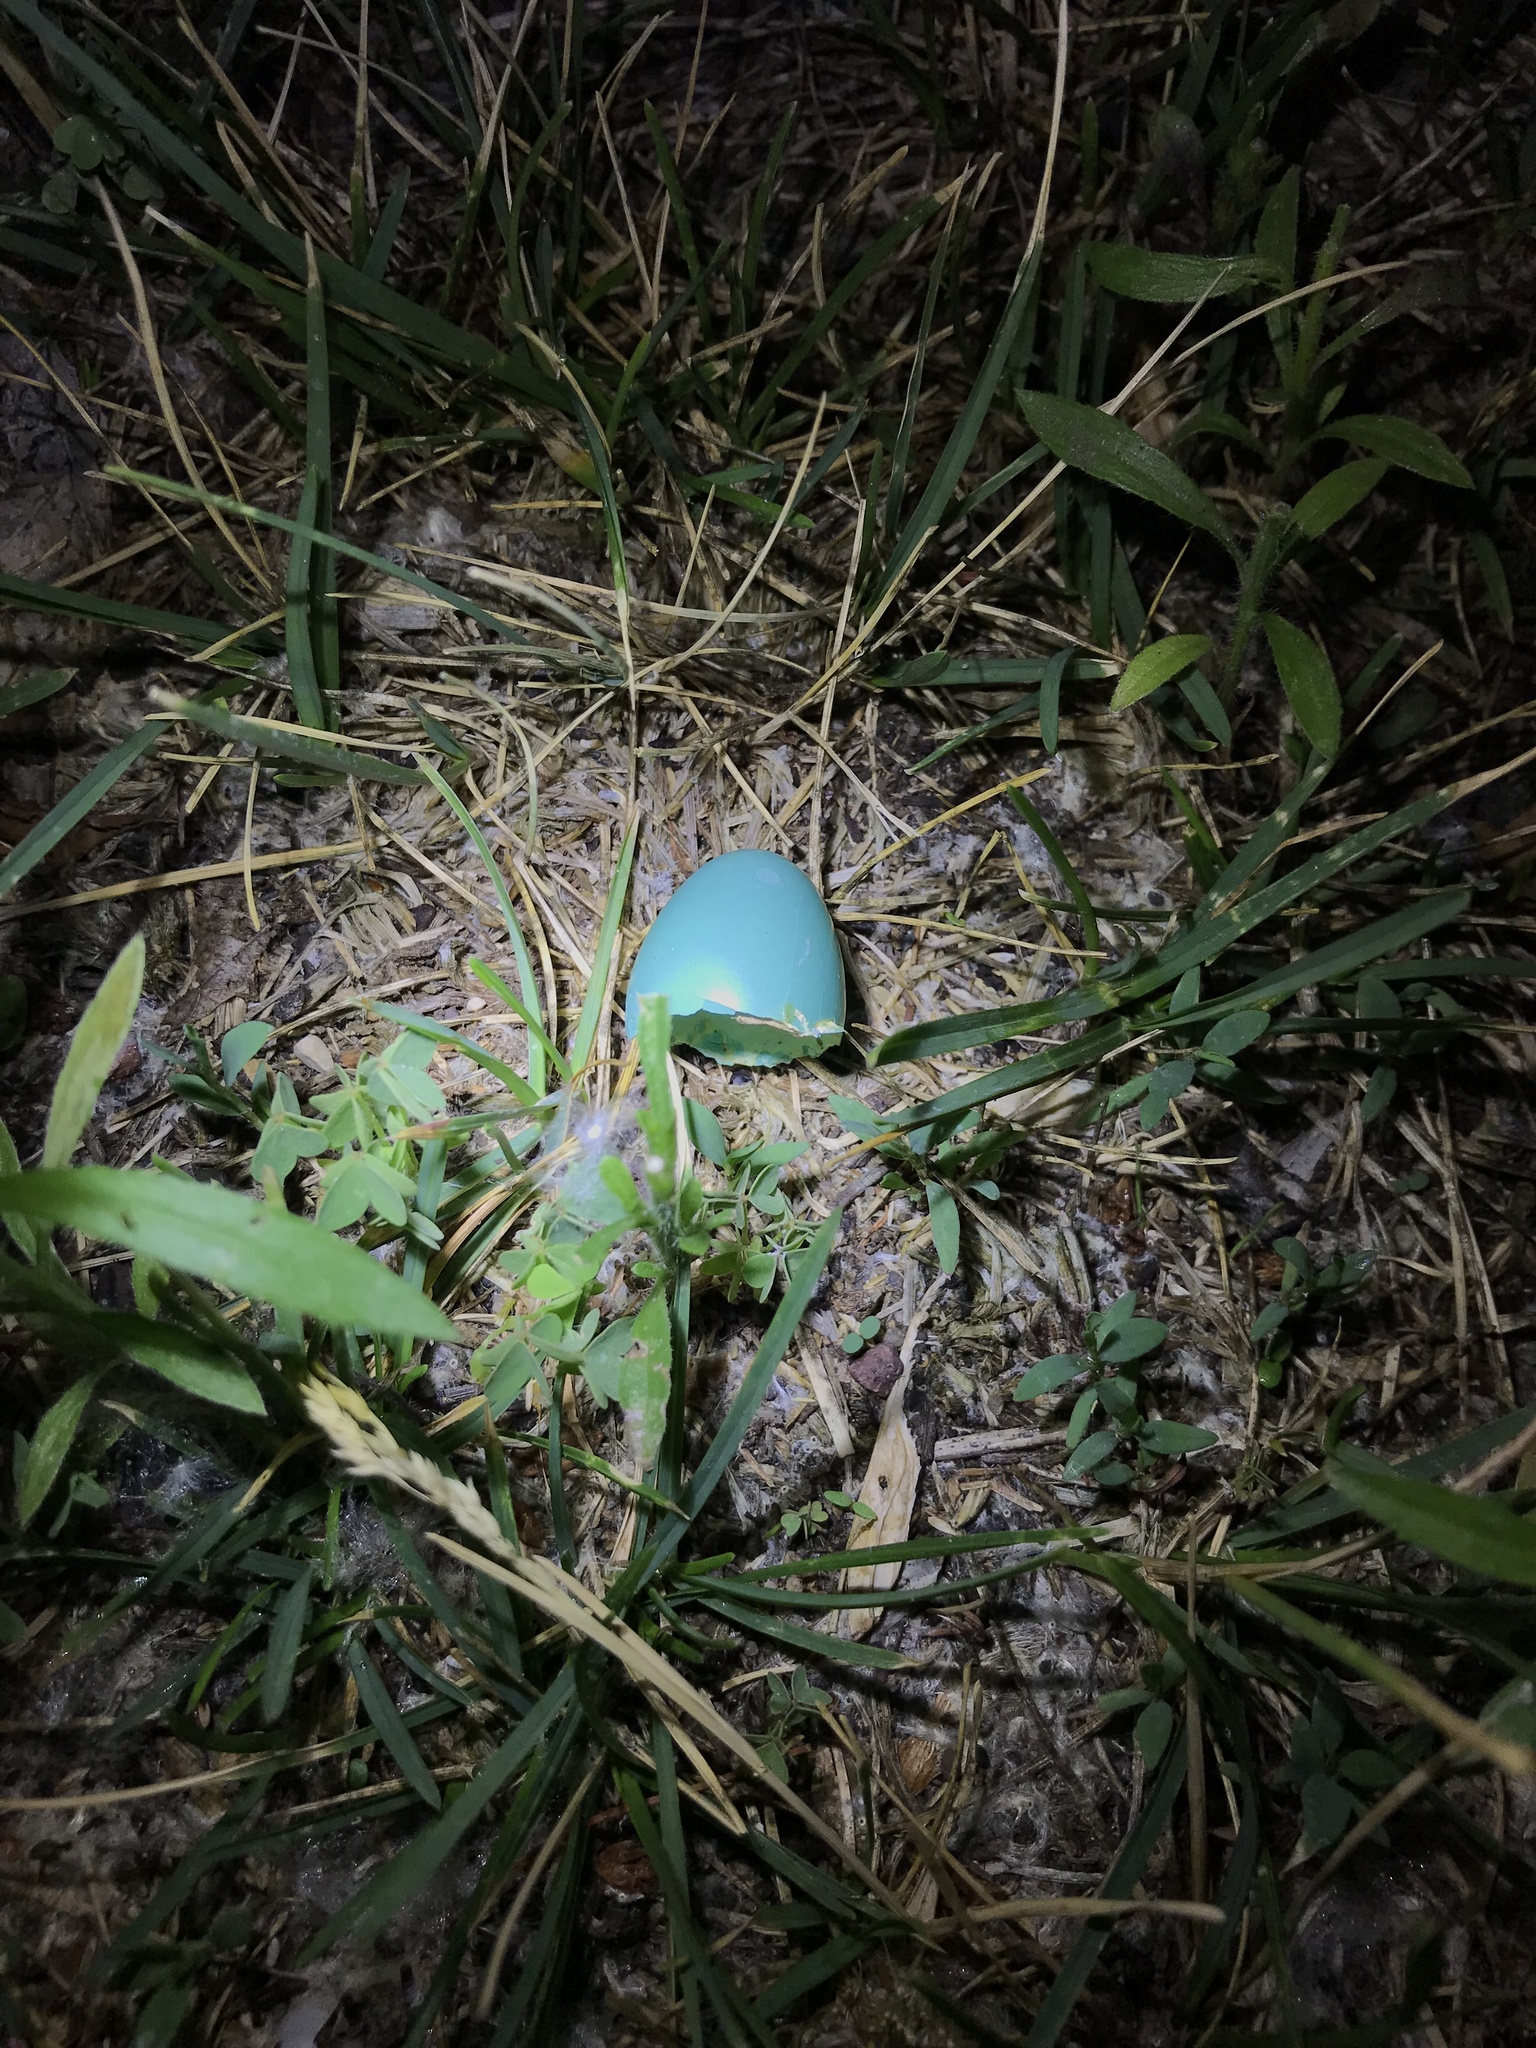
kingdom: Animalia
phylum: Chordata
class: Aves
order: Passeriformes
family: Turdidae
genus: Turdus
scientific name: Turdus migratorius
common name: American robin
